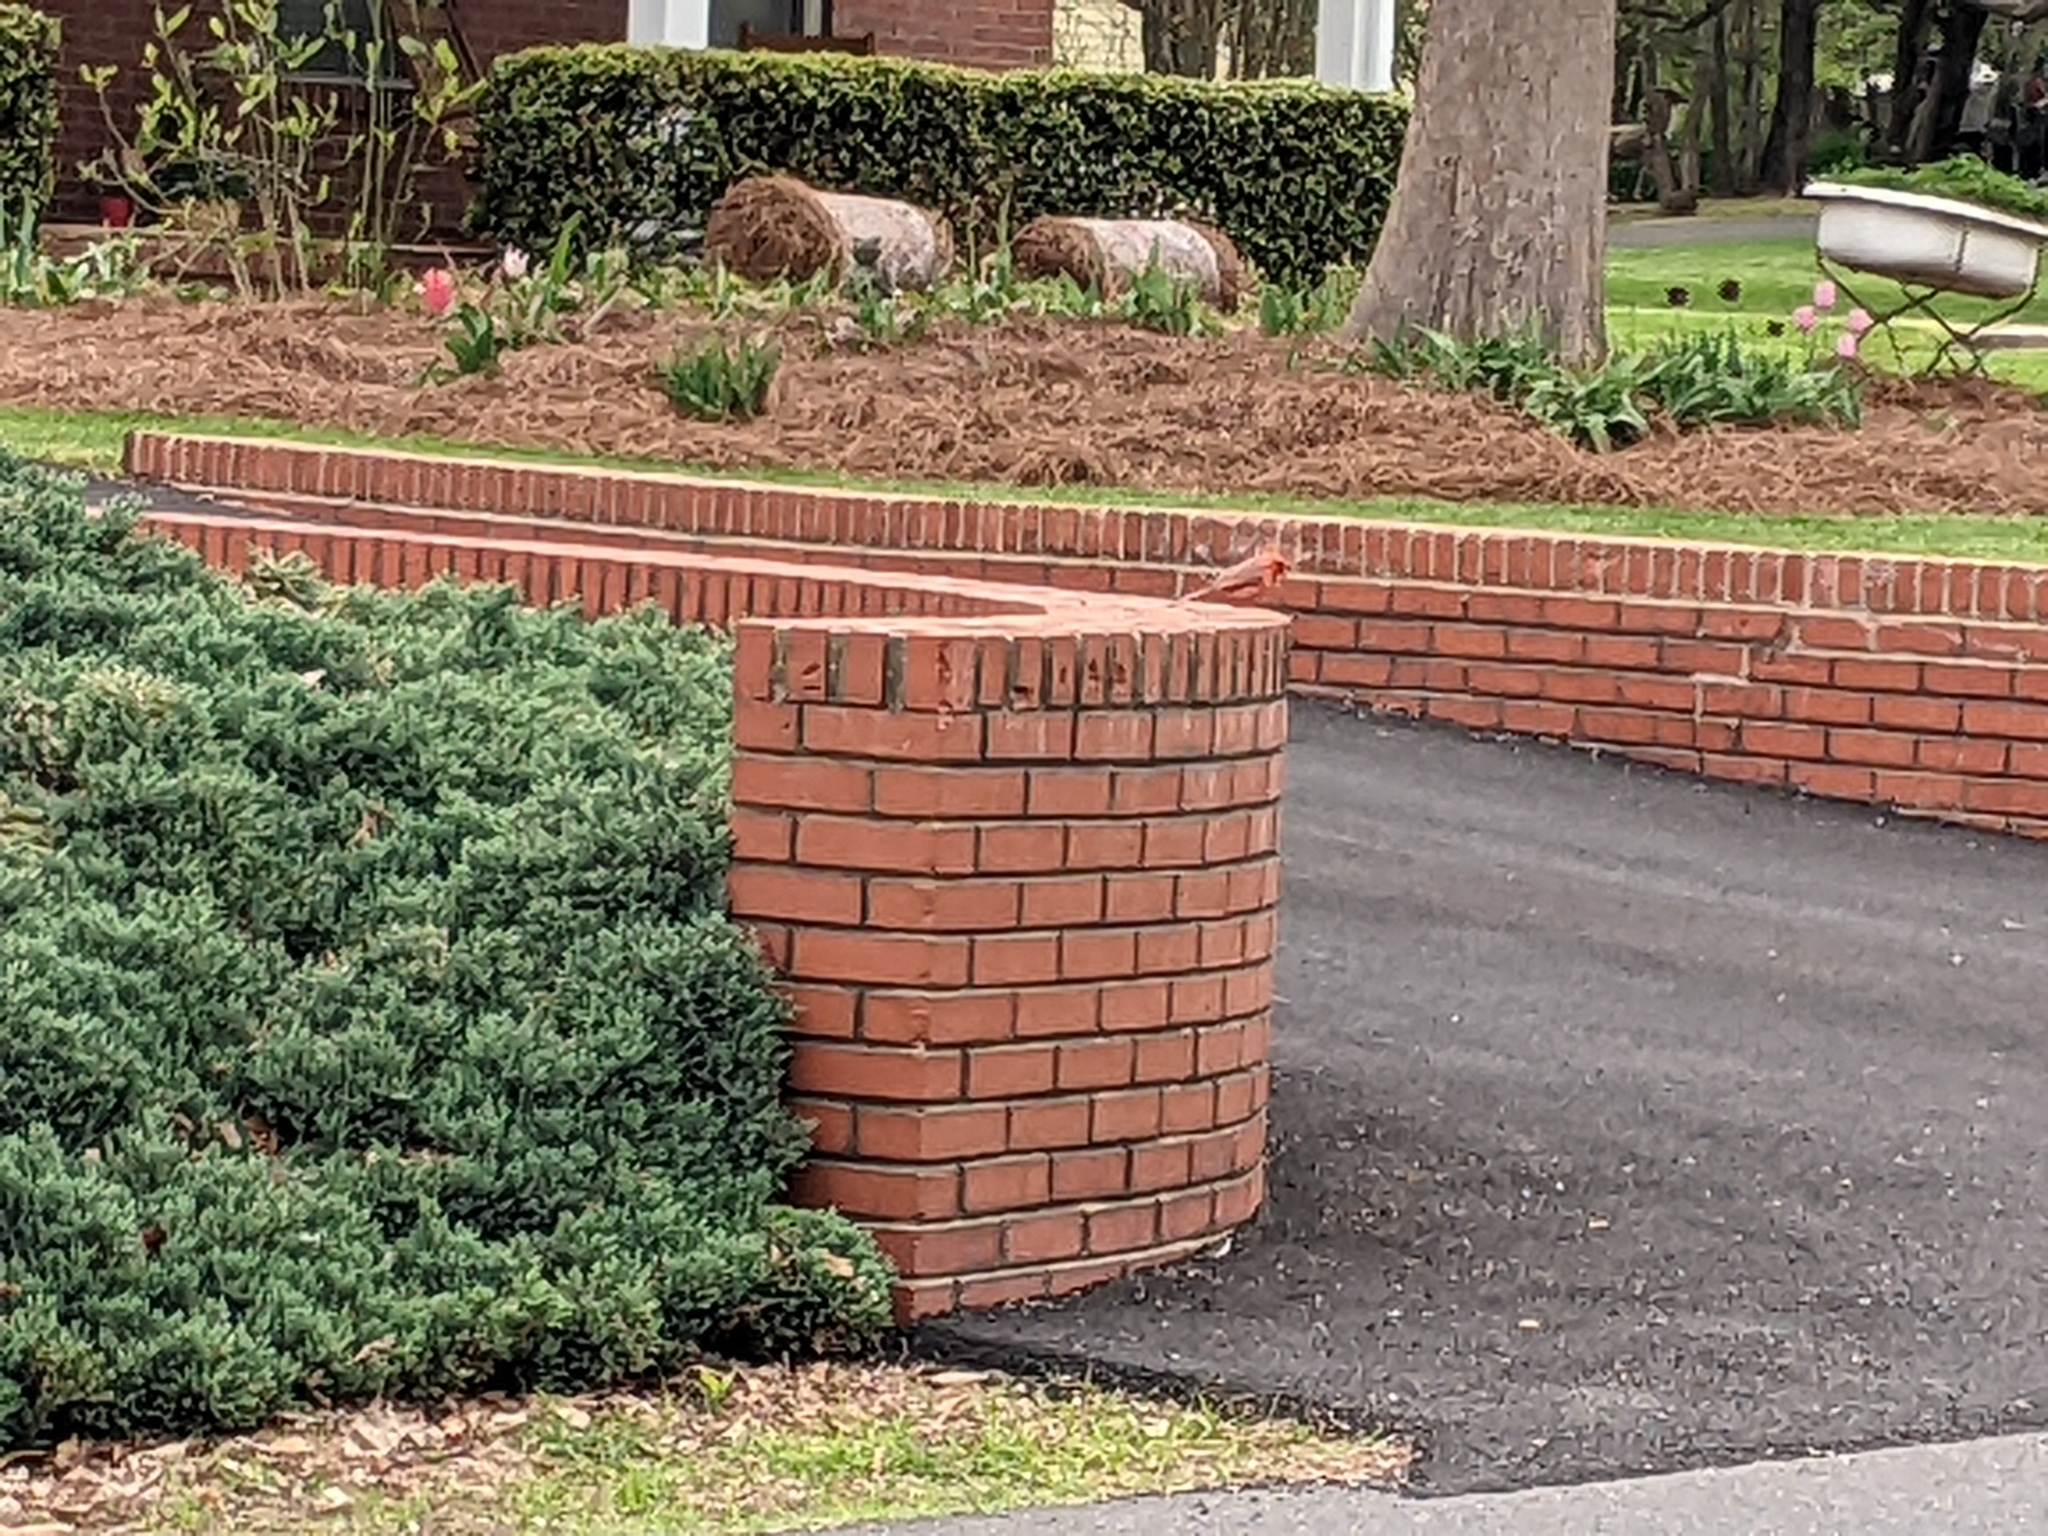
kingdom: Animalia
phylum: Chordata
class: Aves
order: Passeriformes
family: Cardinalidae
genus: Cardinalis
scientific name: Cardinalis cardinalis
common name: Northern cardinal
